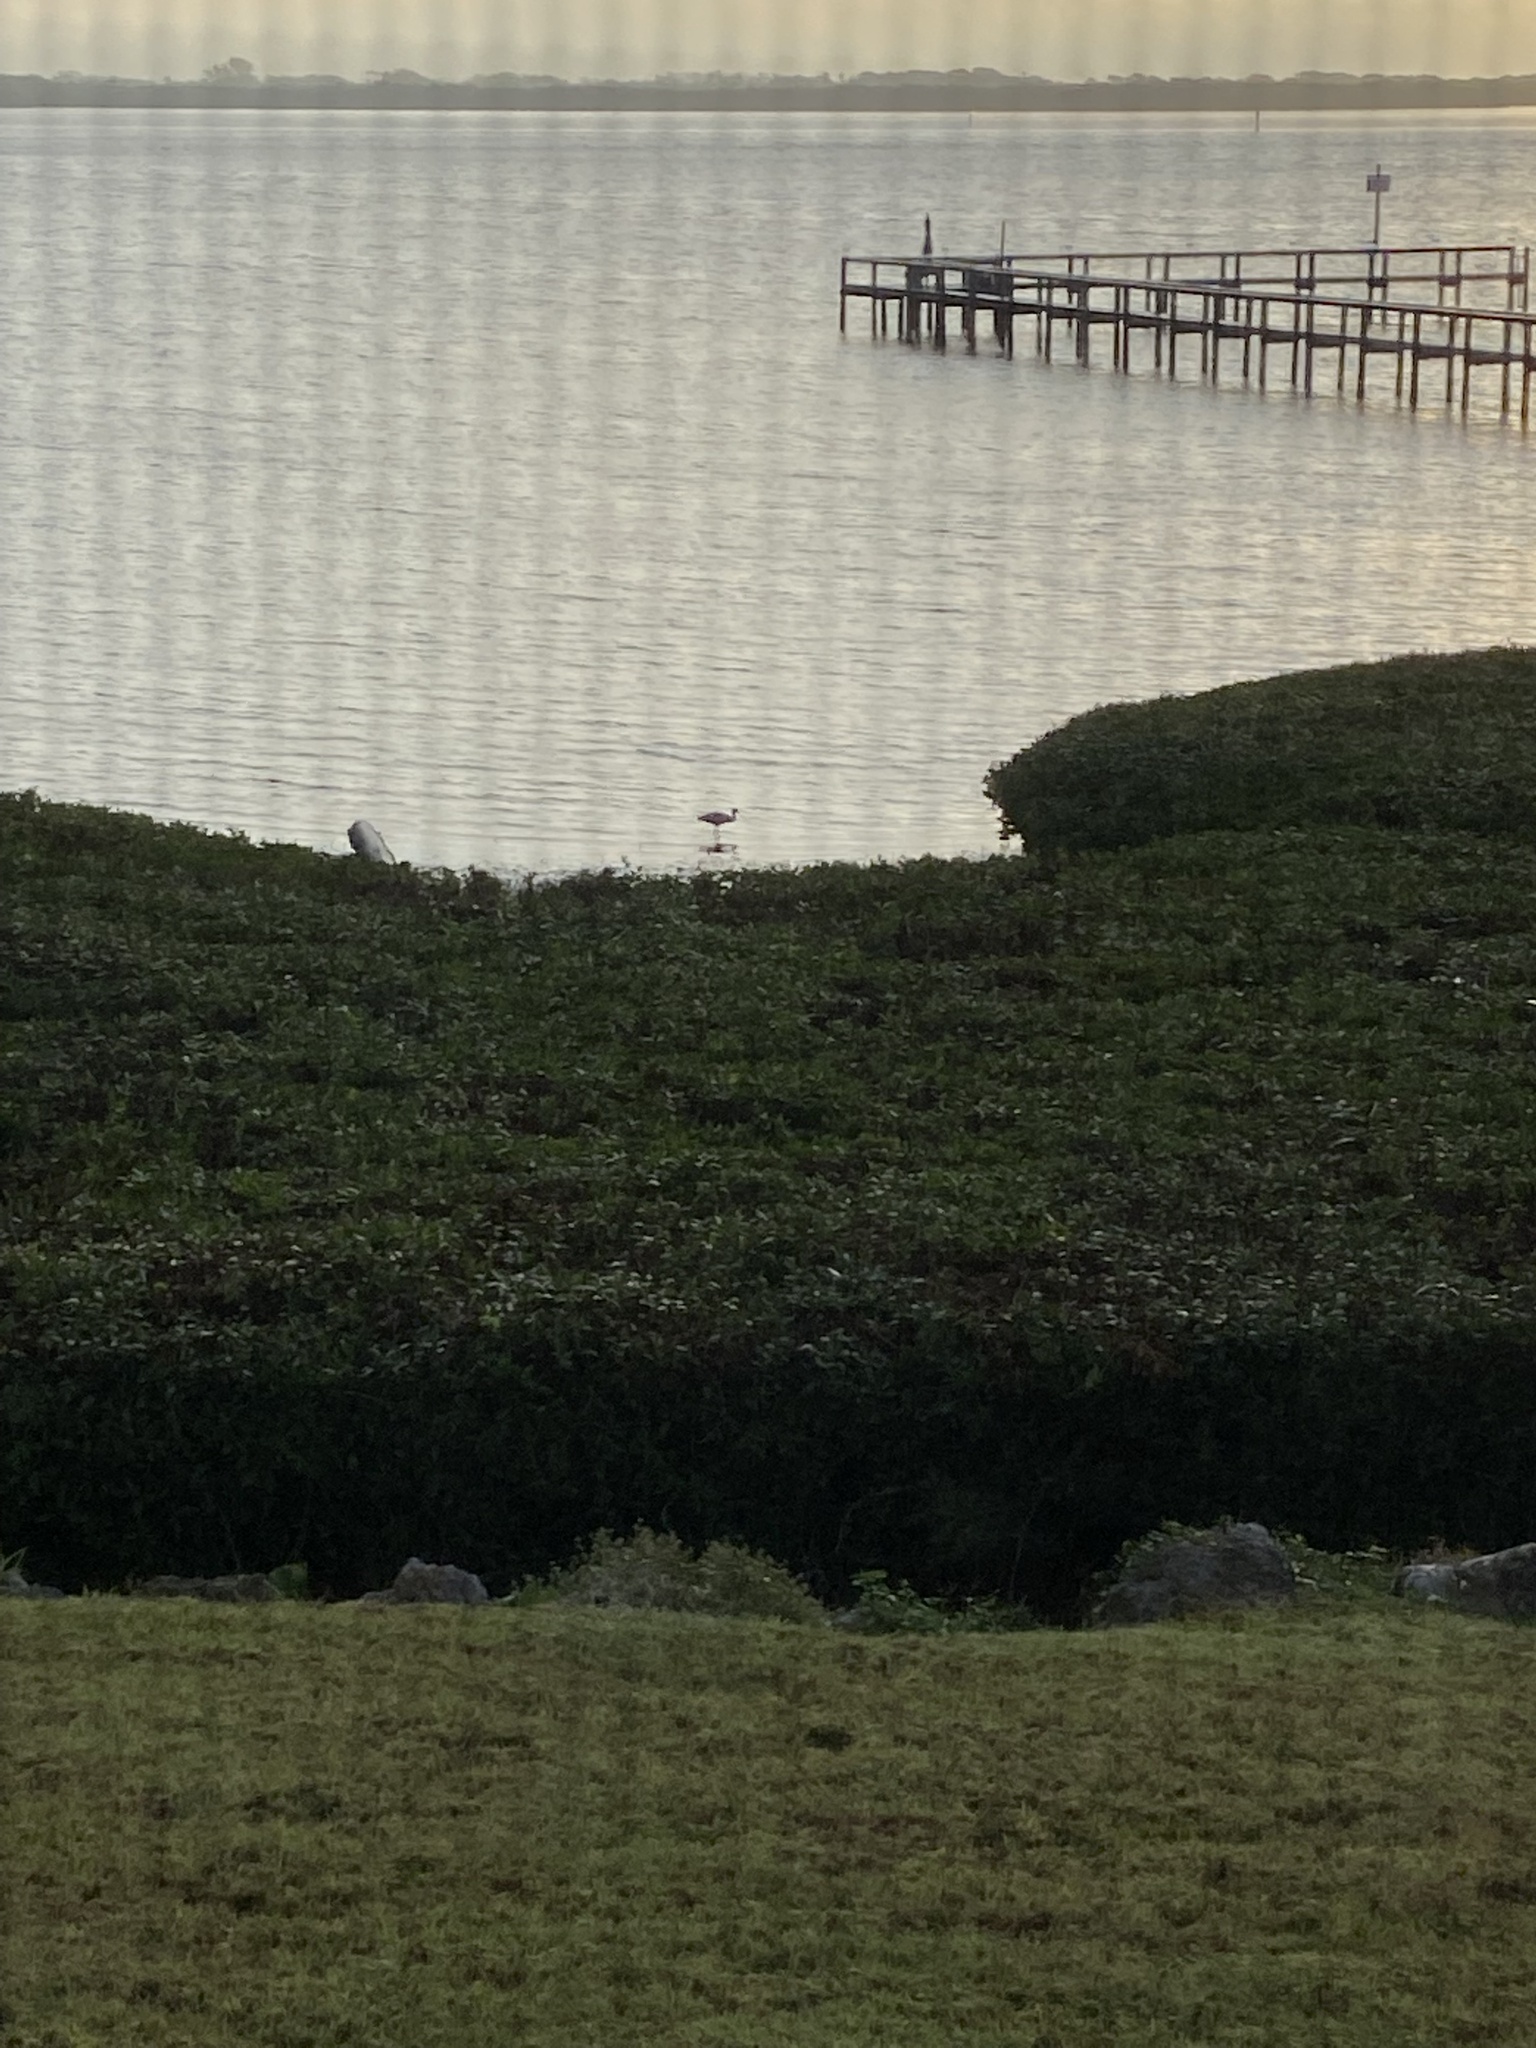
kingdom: Animalia
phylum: Chordata
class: Aves
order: Pelecaniformes
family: Threskiornithidae
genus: Platalea
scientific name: Platalea ajaja
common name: Roseate spoonbill
